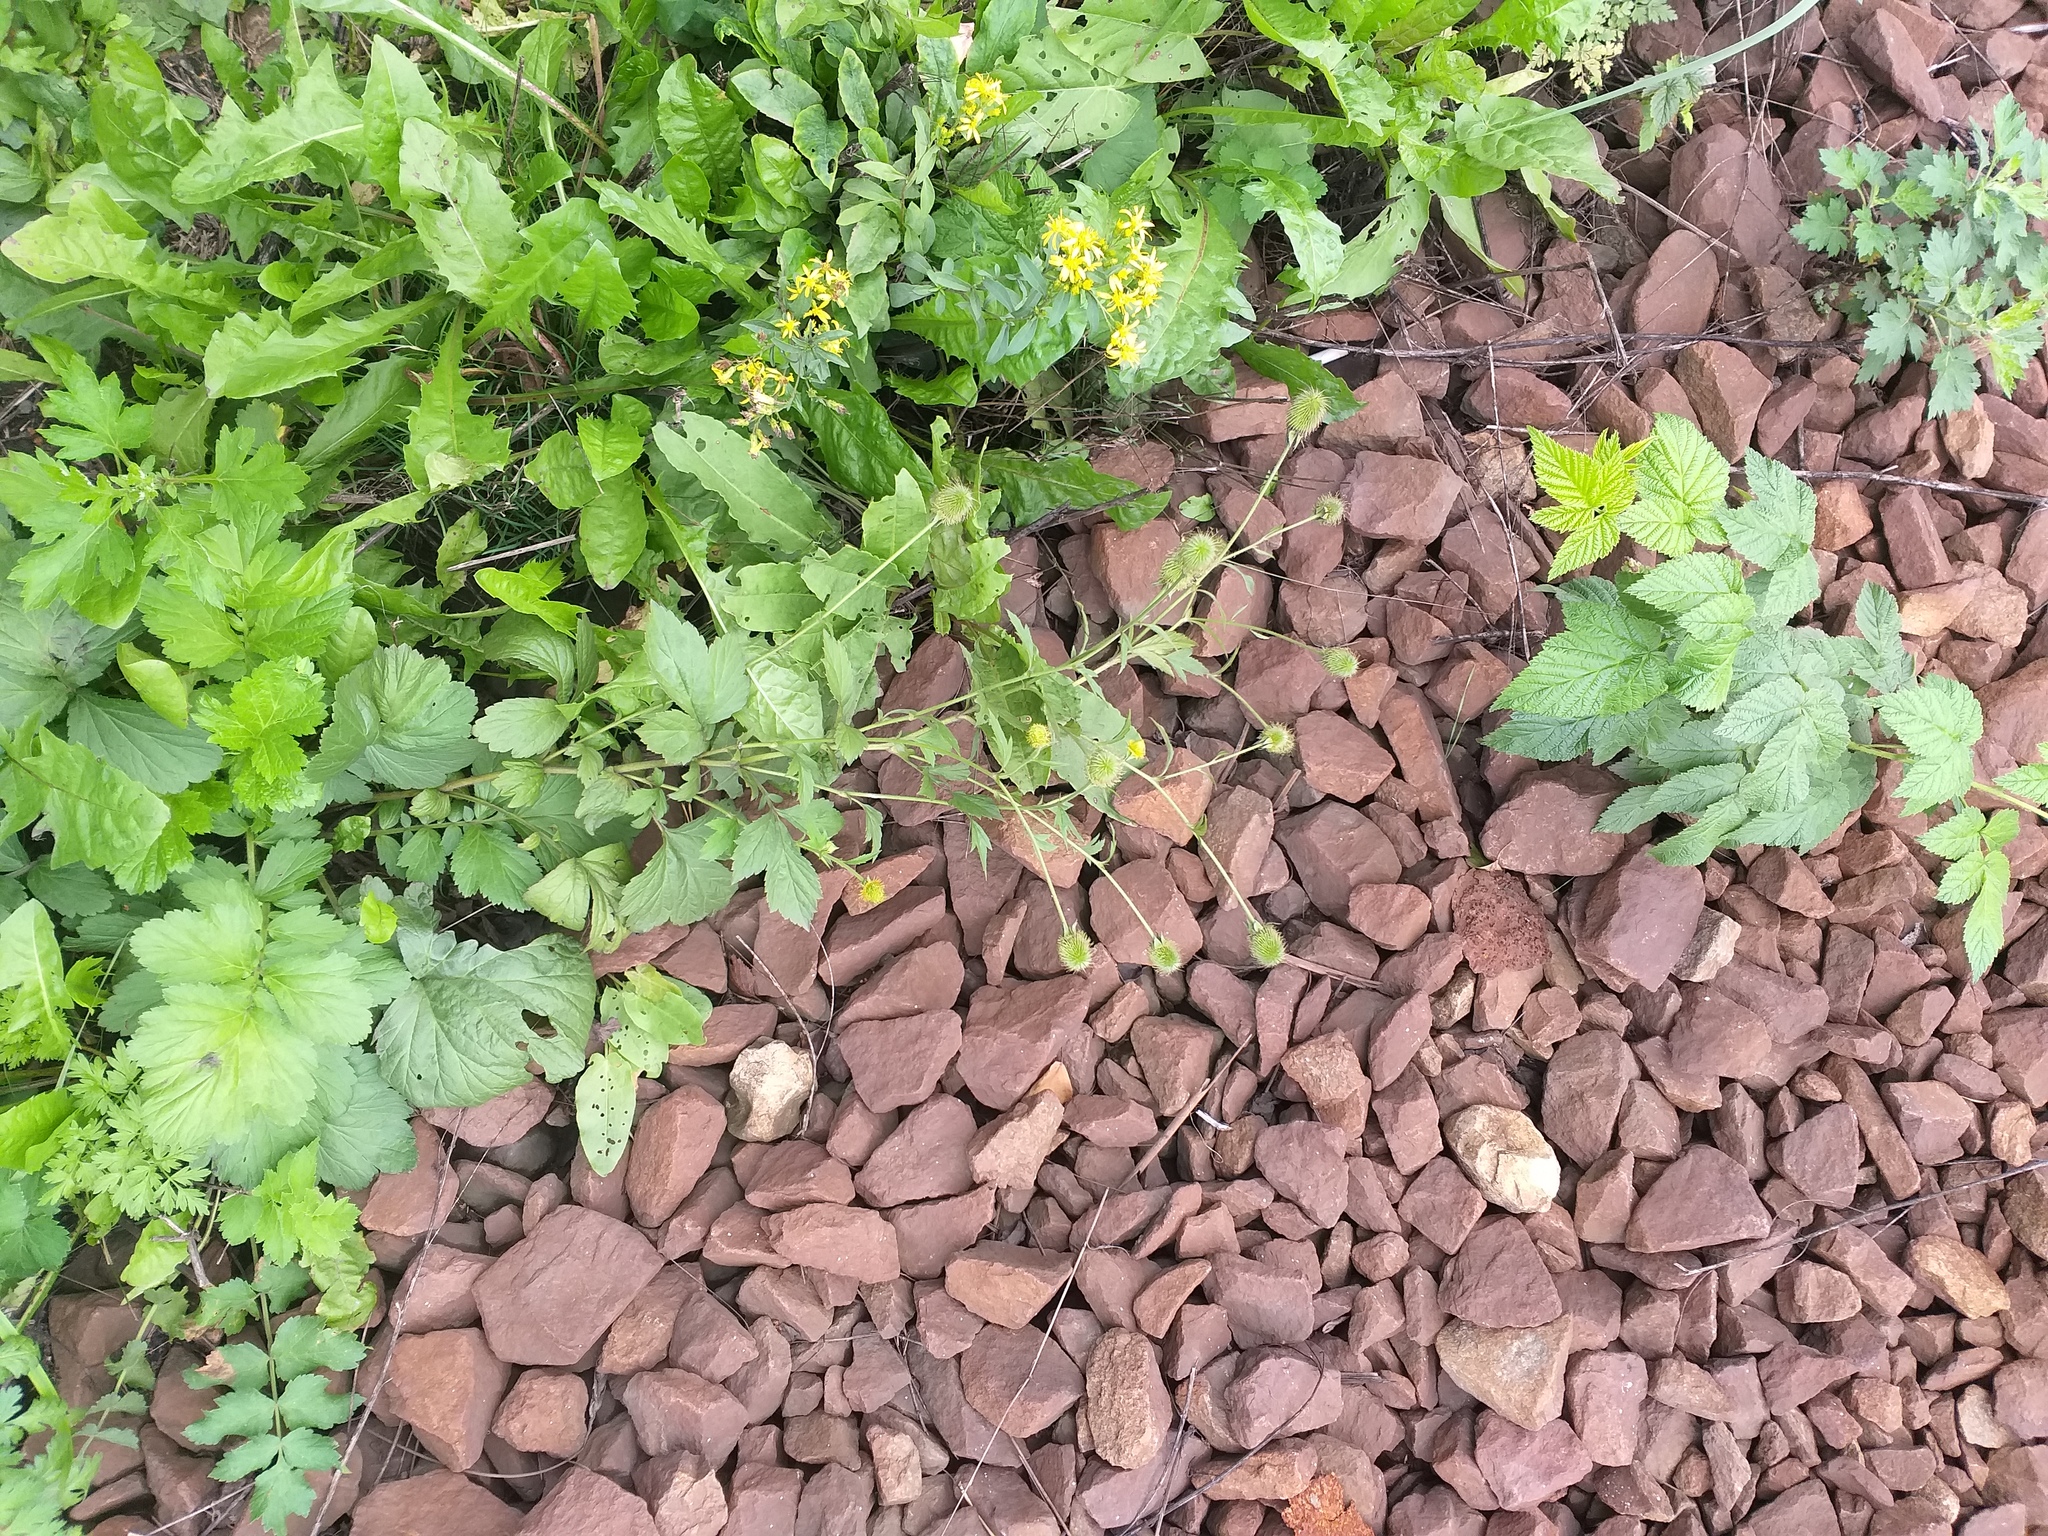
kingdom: Plantae
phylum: Tracheophyta
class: Magnoliopsida
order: Rosales
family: Rosaceae
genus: Geum
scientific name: Geum aleppicum
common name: Yellow avens
